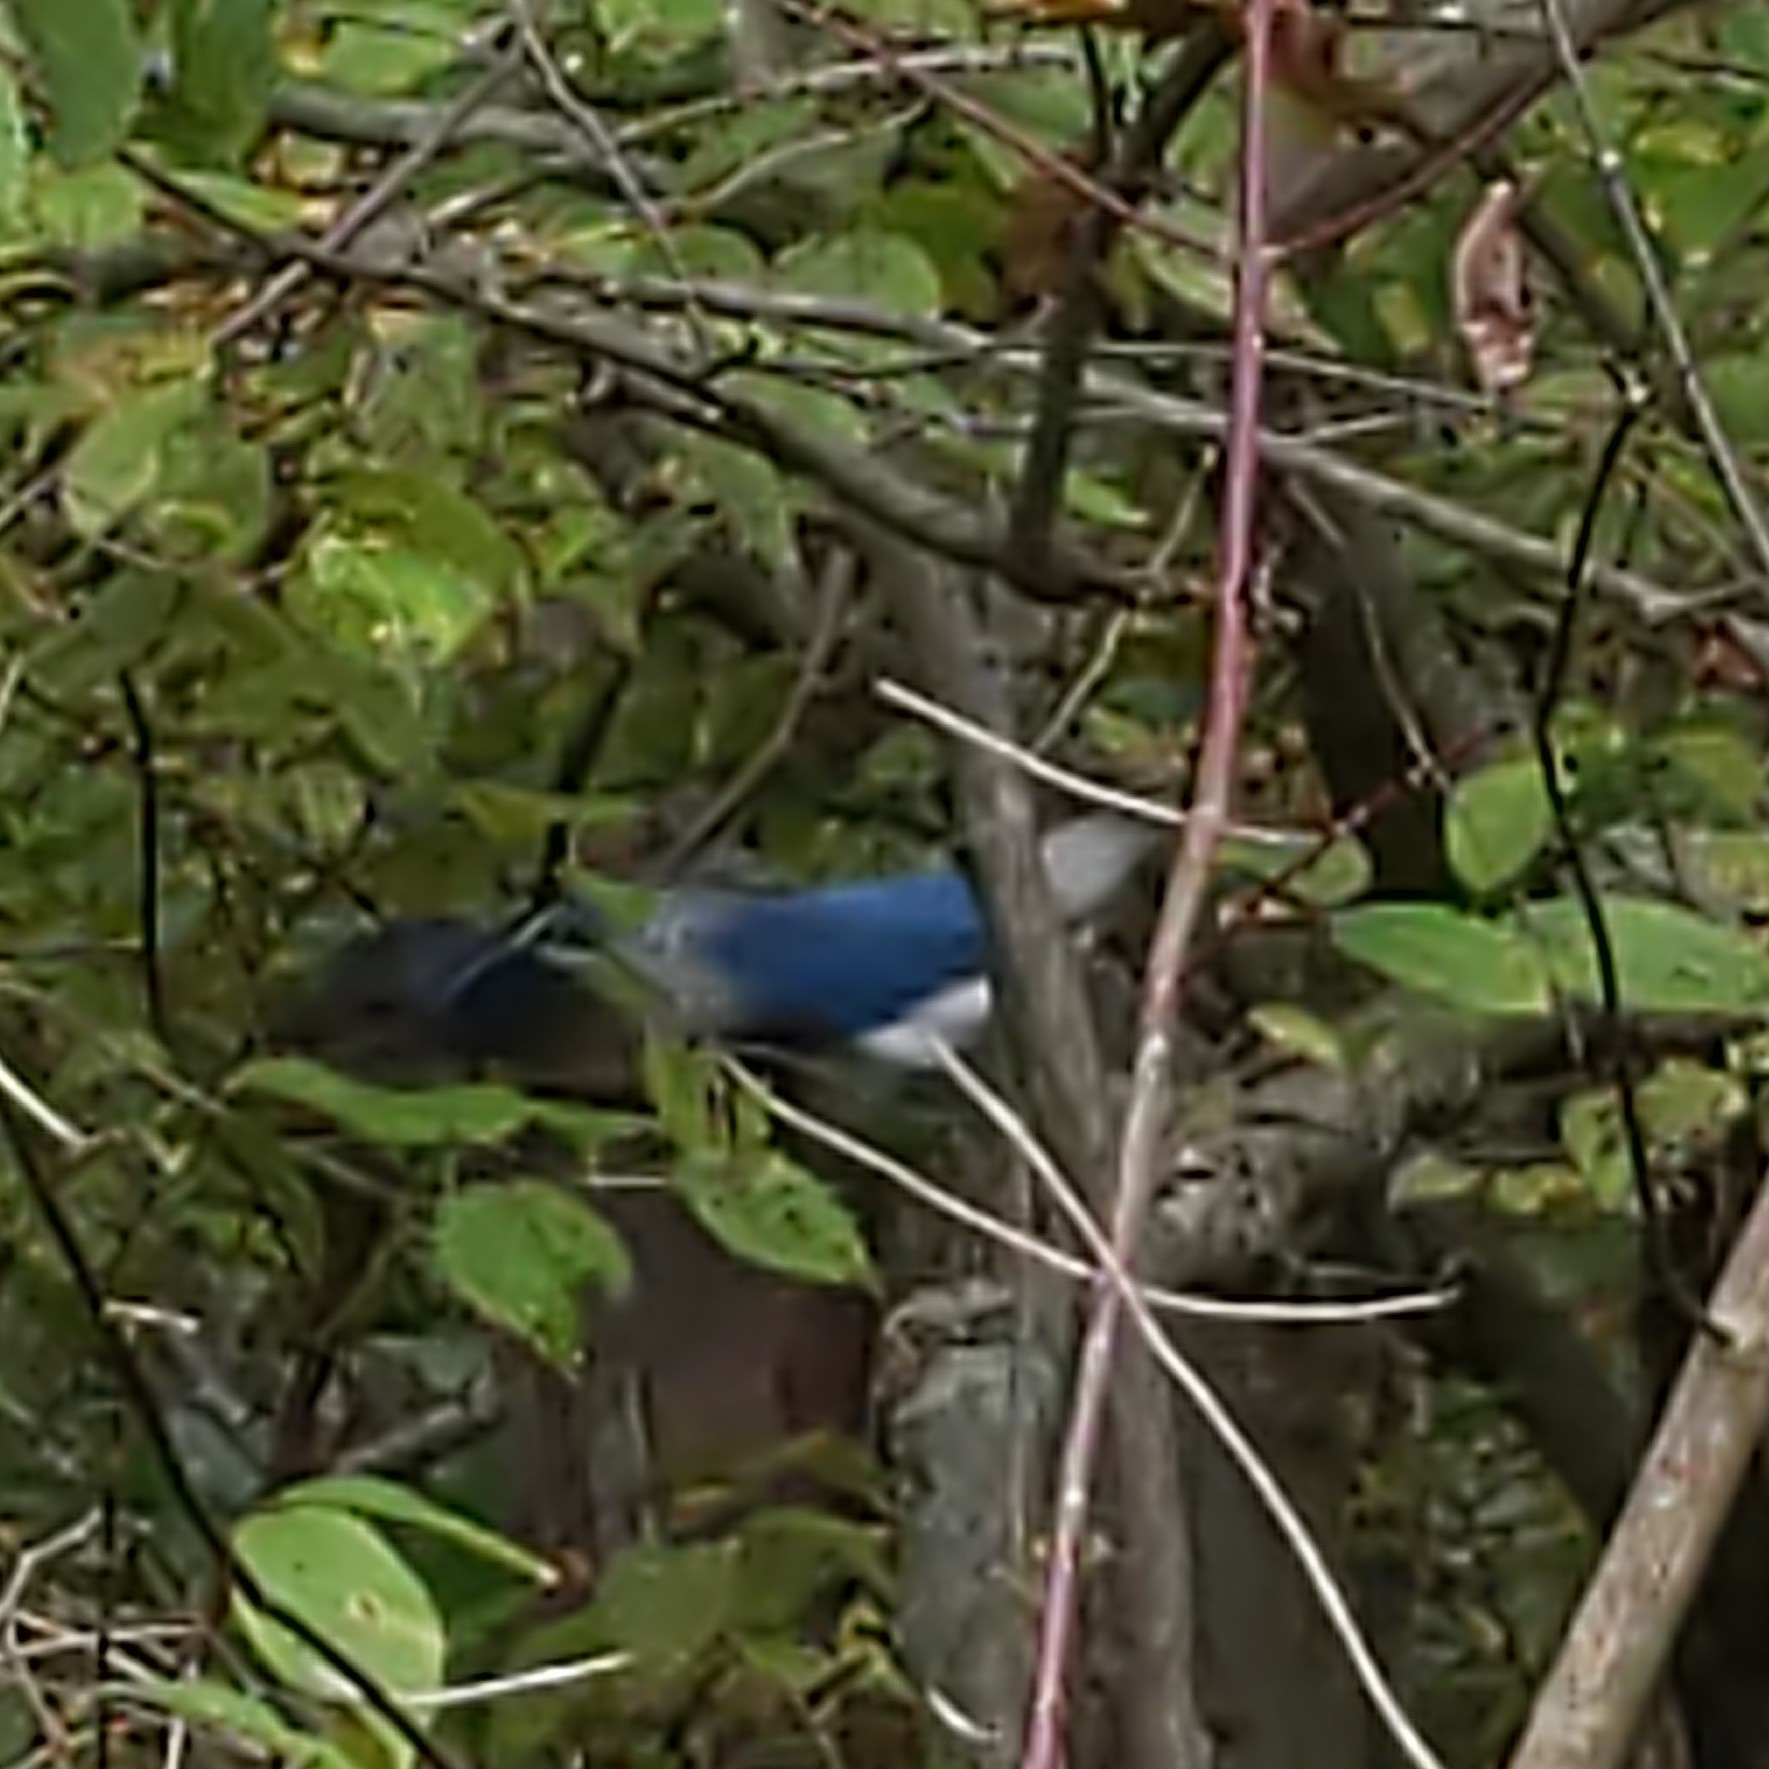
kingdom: Animalia
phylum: Chordata
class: Aves
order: Passeriformes
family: Corvidae
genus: Cyanocitta
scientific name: Cyanocitta cristata
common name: Blue jay
